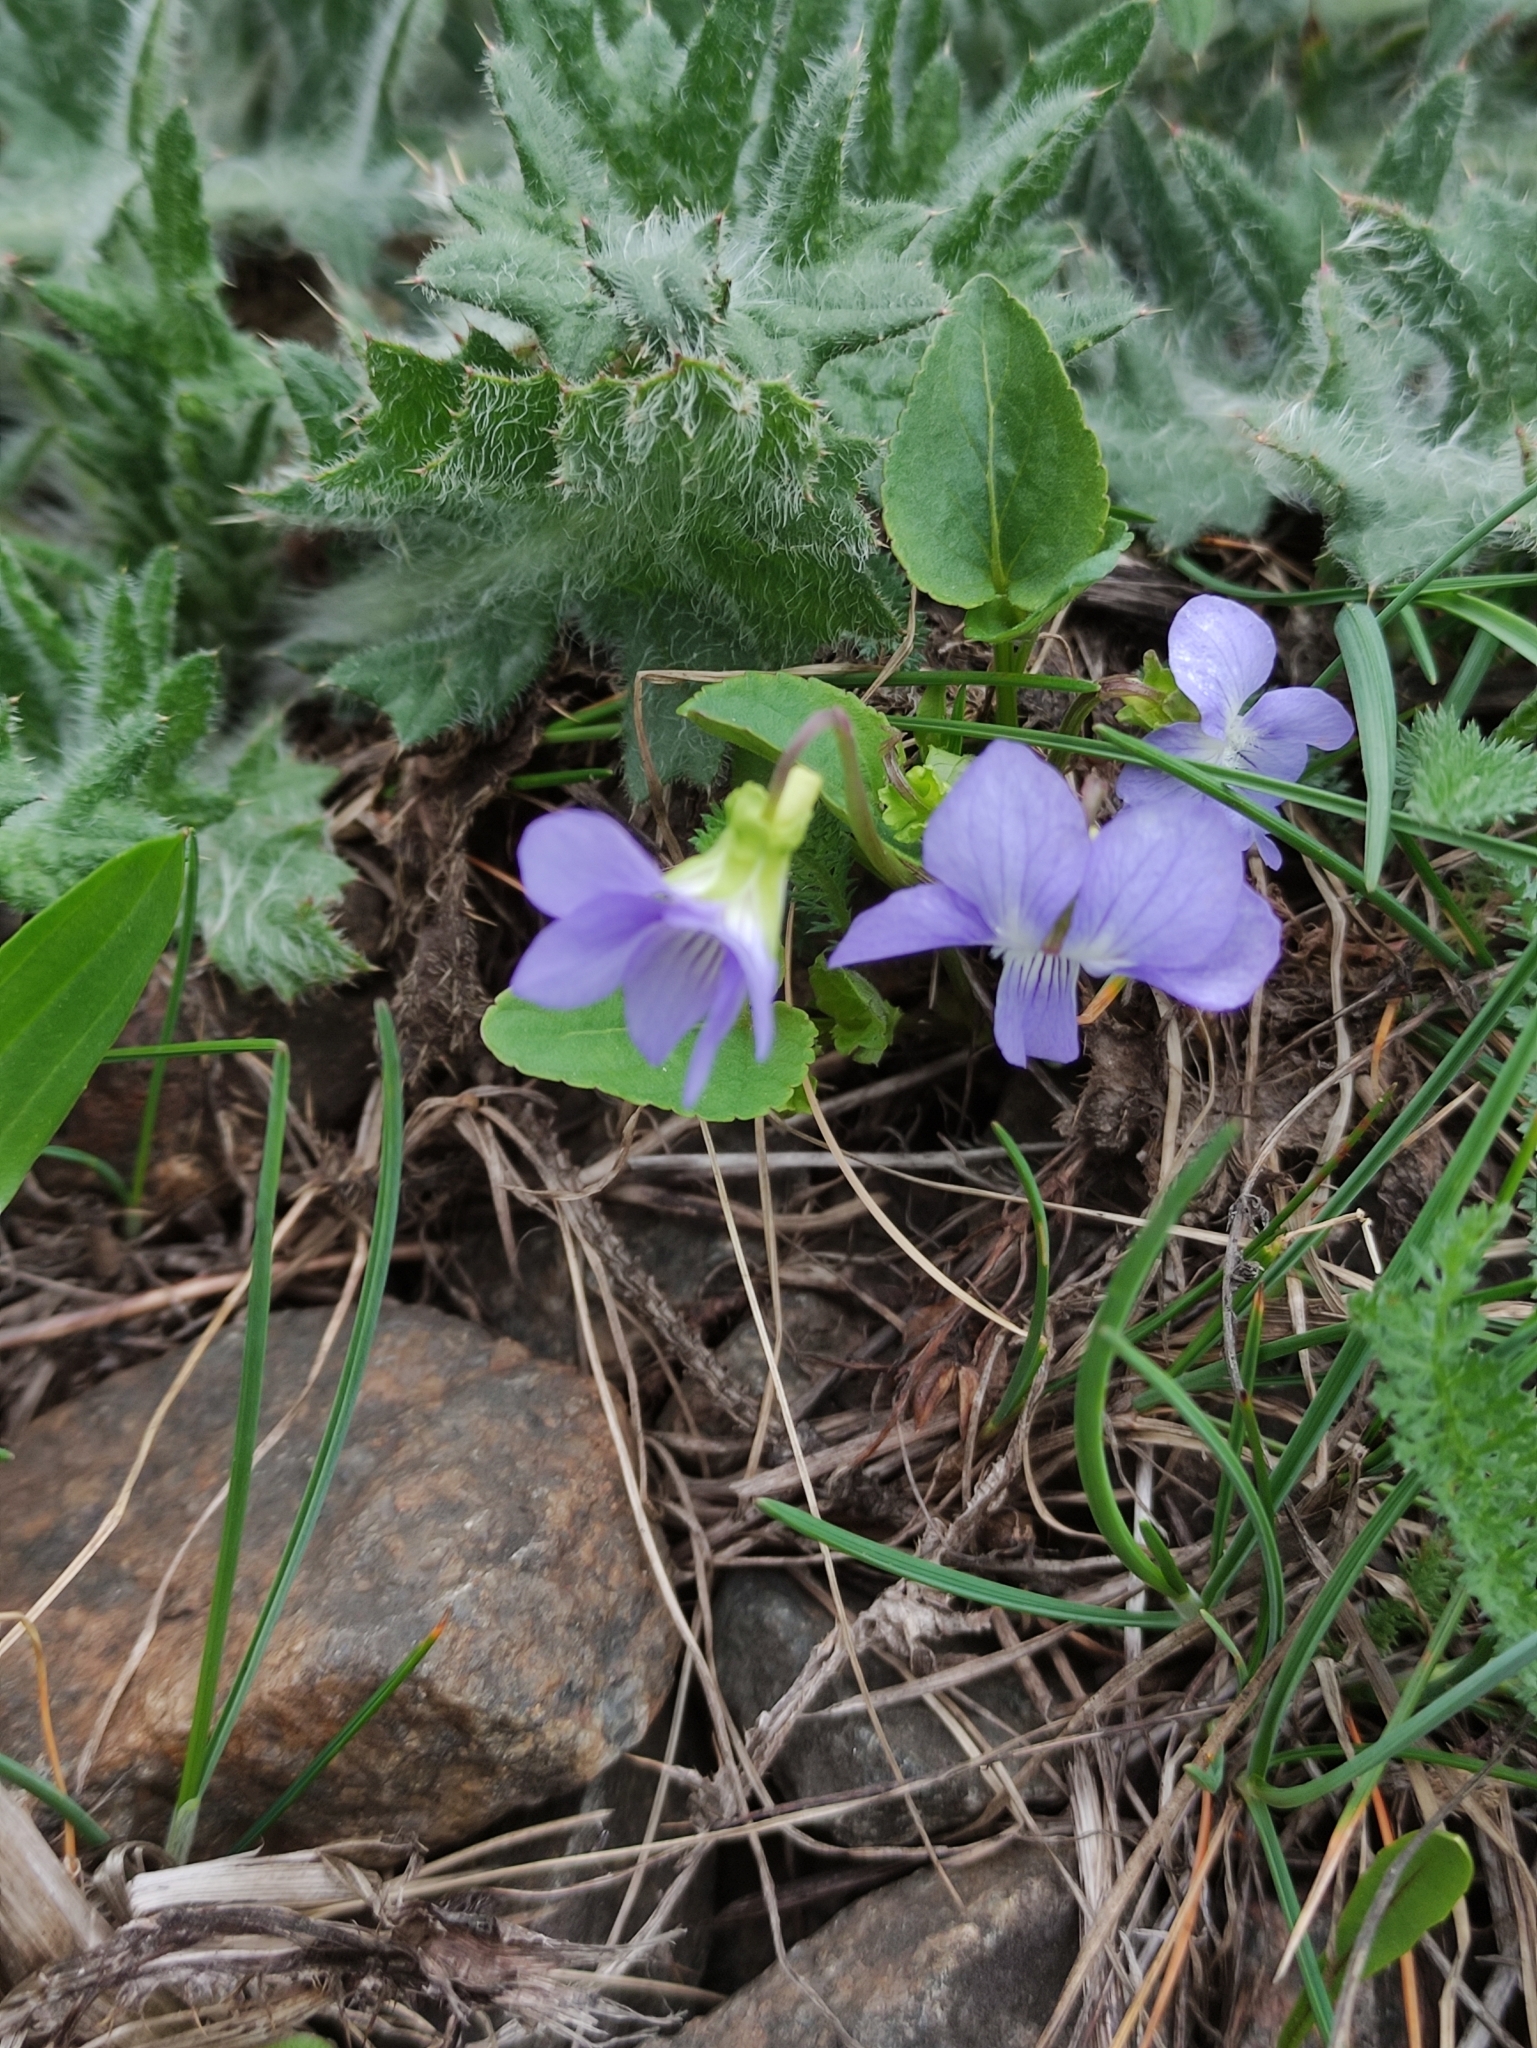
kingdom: Plantae
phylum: Tracheophyta
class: Magnoliopsida
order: Malpighiales
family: Violaceae
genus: Viola
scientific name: Viola canina
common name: Heath dog-violet
